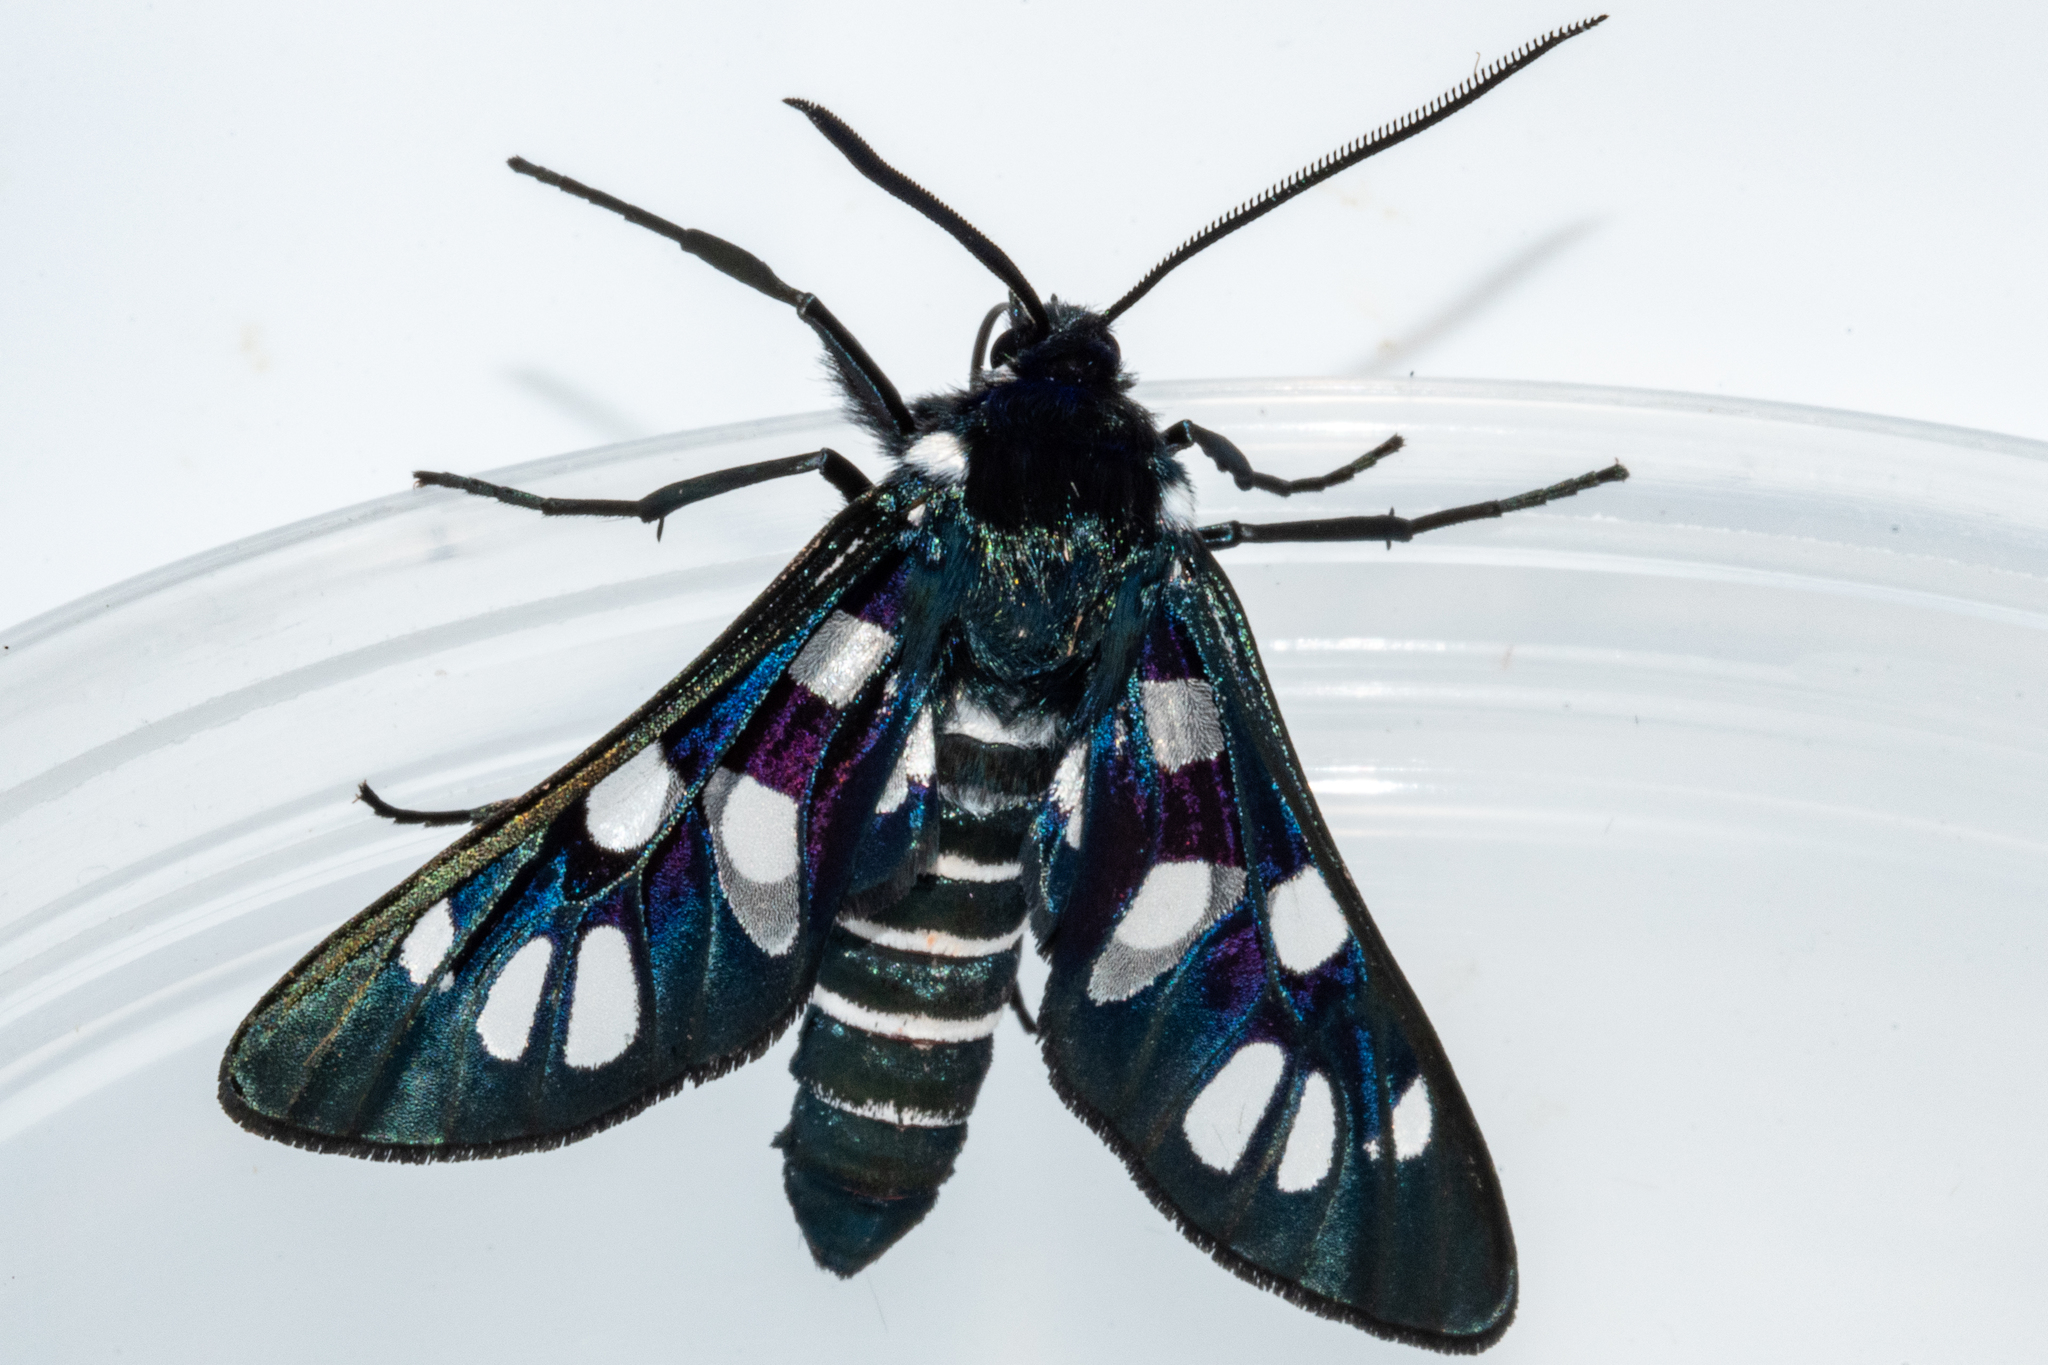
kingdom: Animalia
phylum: Arthropoda
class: Insecta
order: Lepidoptera
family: Erebidae
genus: Eutomis
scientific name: Eutomis minceus
